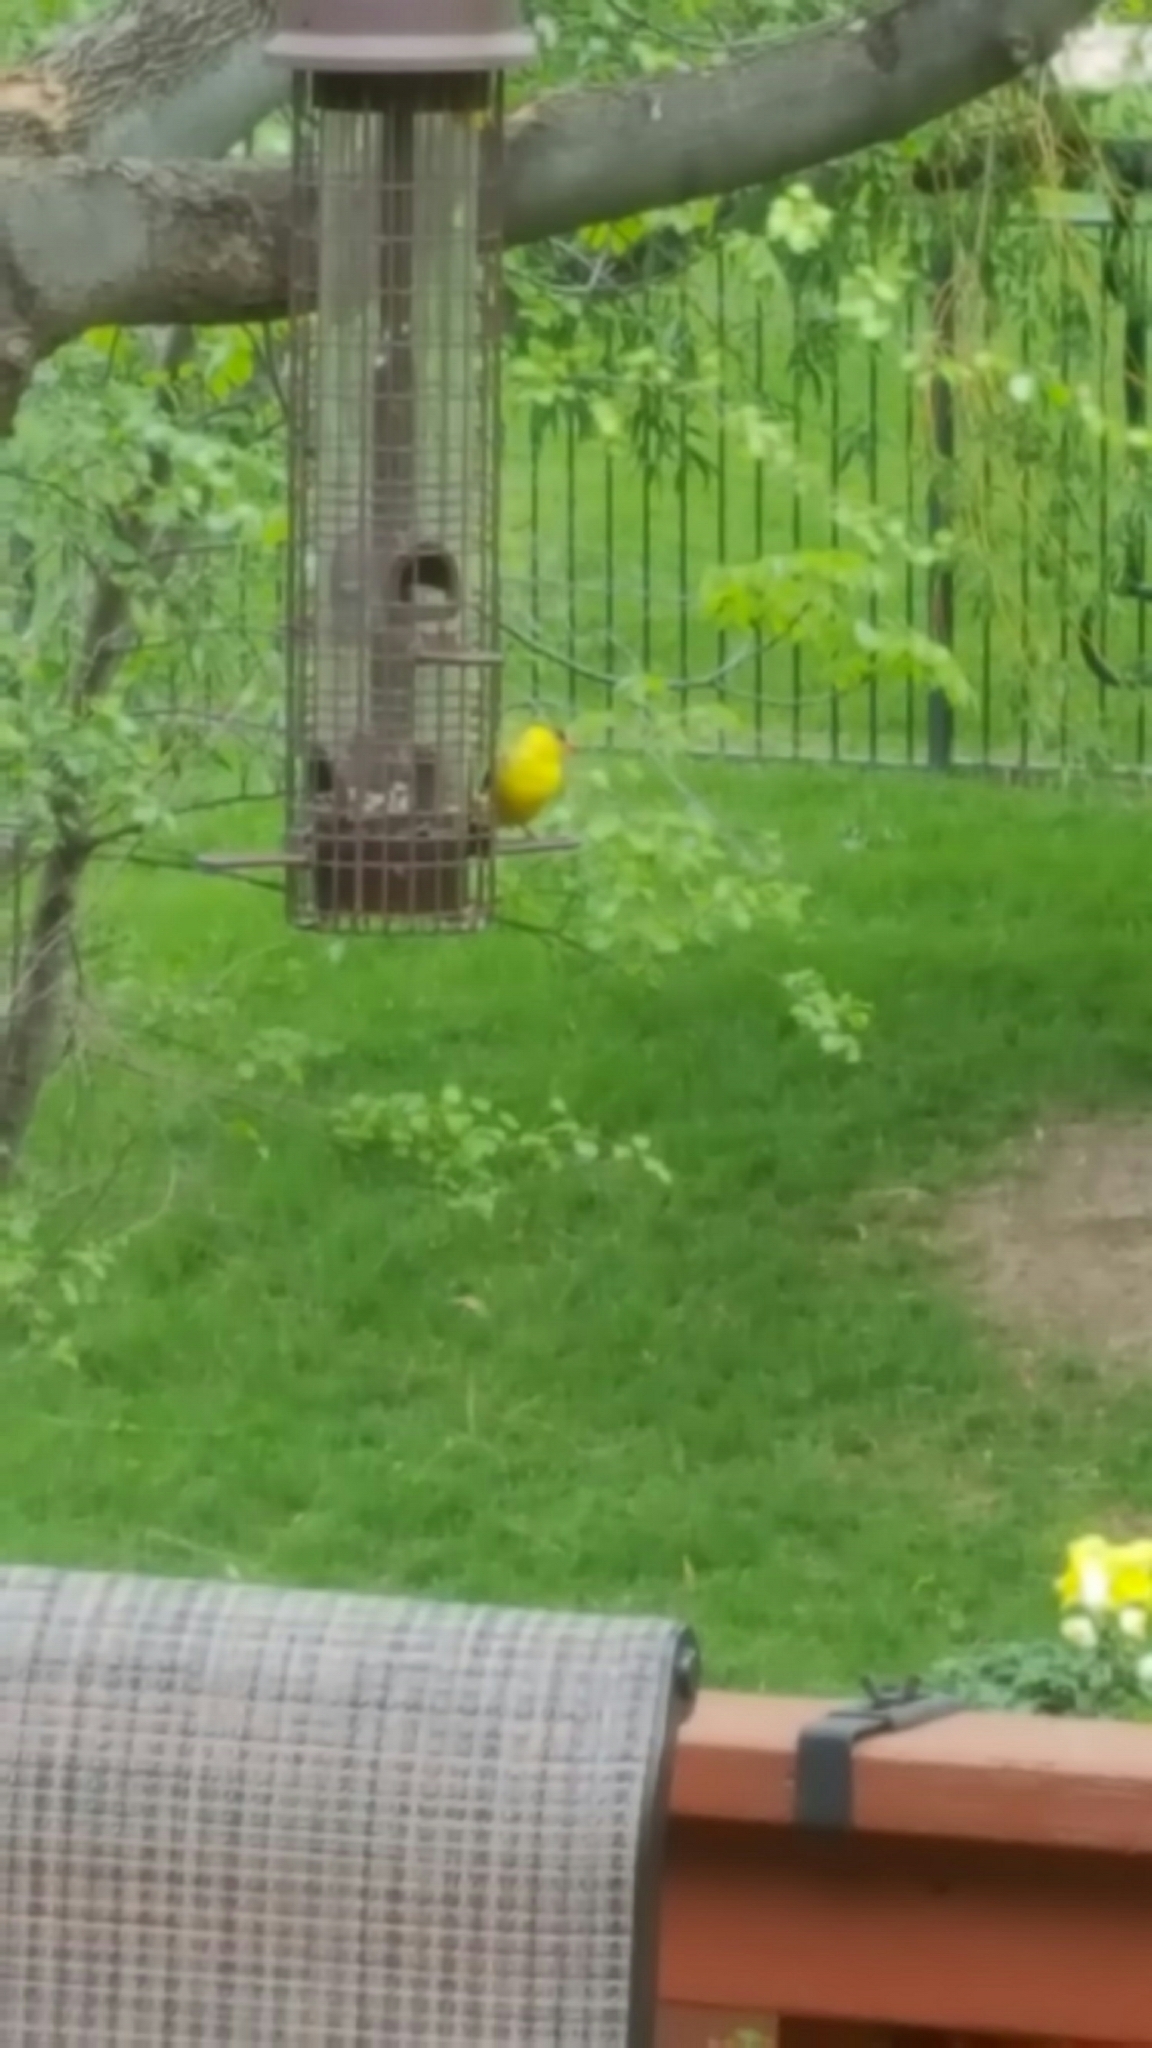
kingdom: Animalia
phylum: Chordata
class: Aves
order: Passeriformes
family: Fringillidae
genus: Spinus
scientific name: Spinus tristis
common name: American goldfinch
